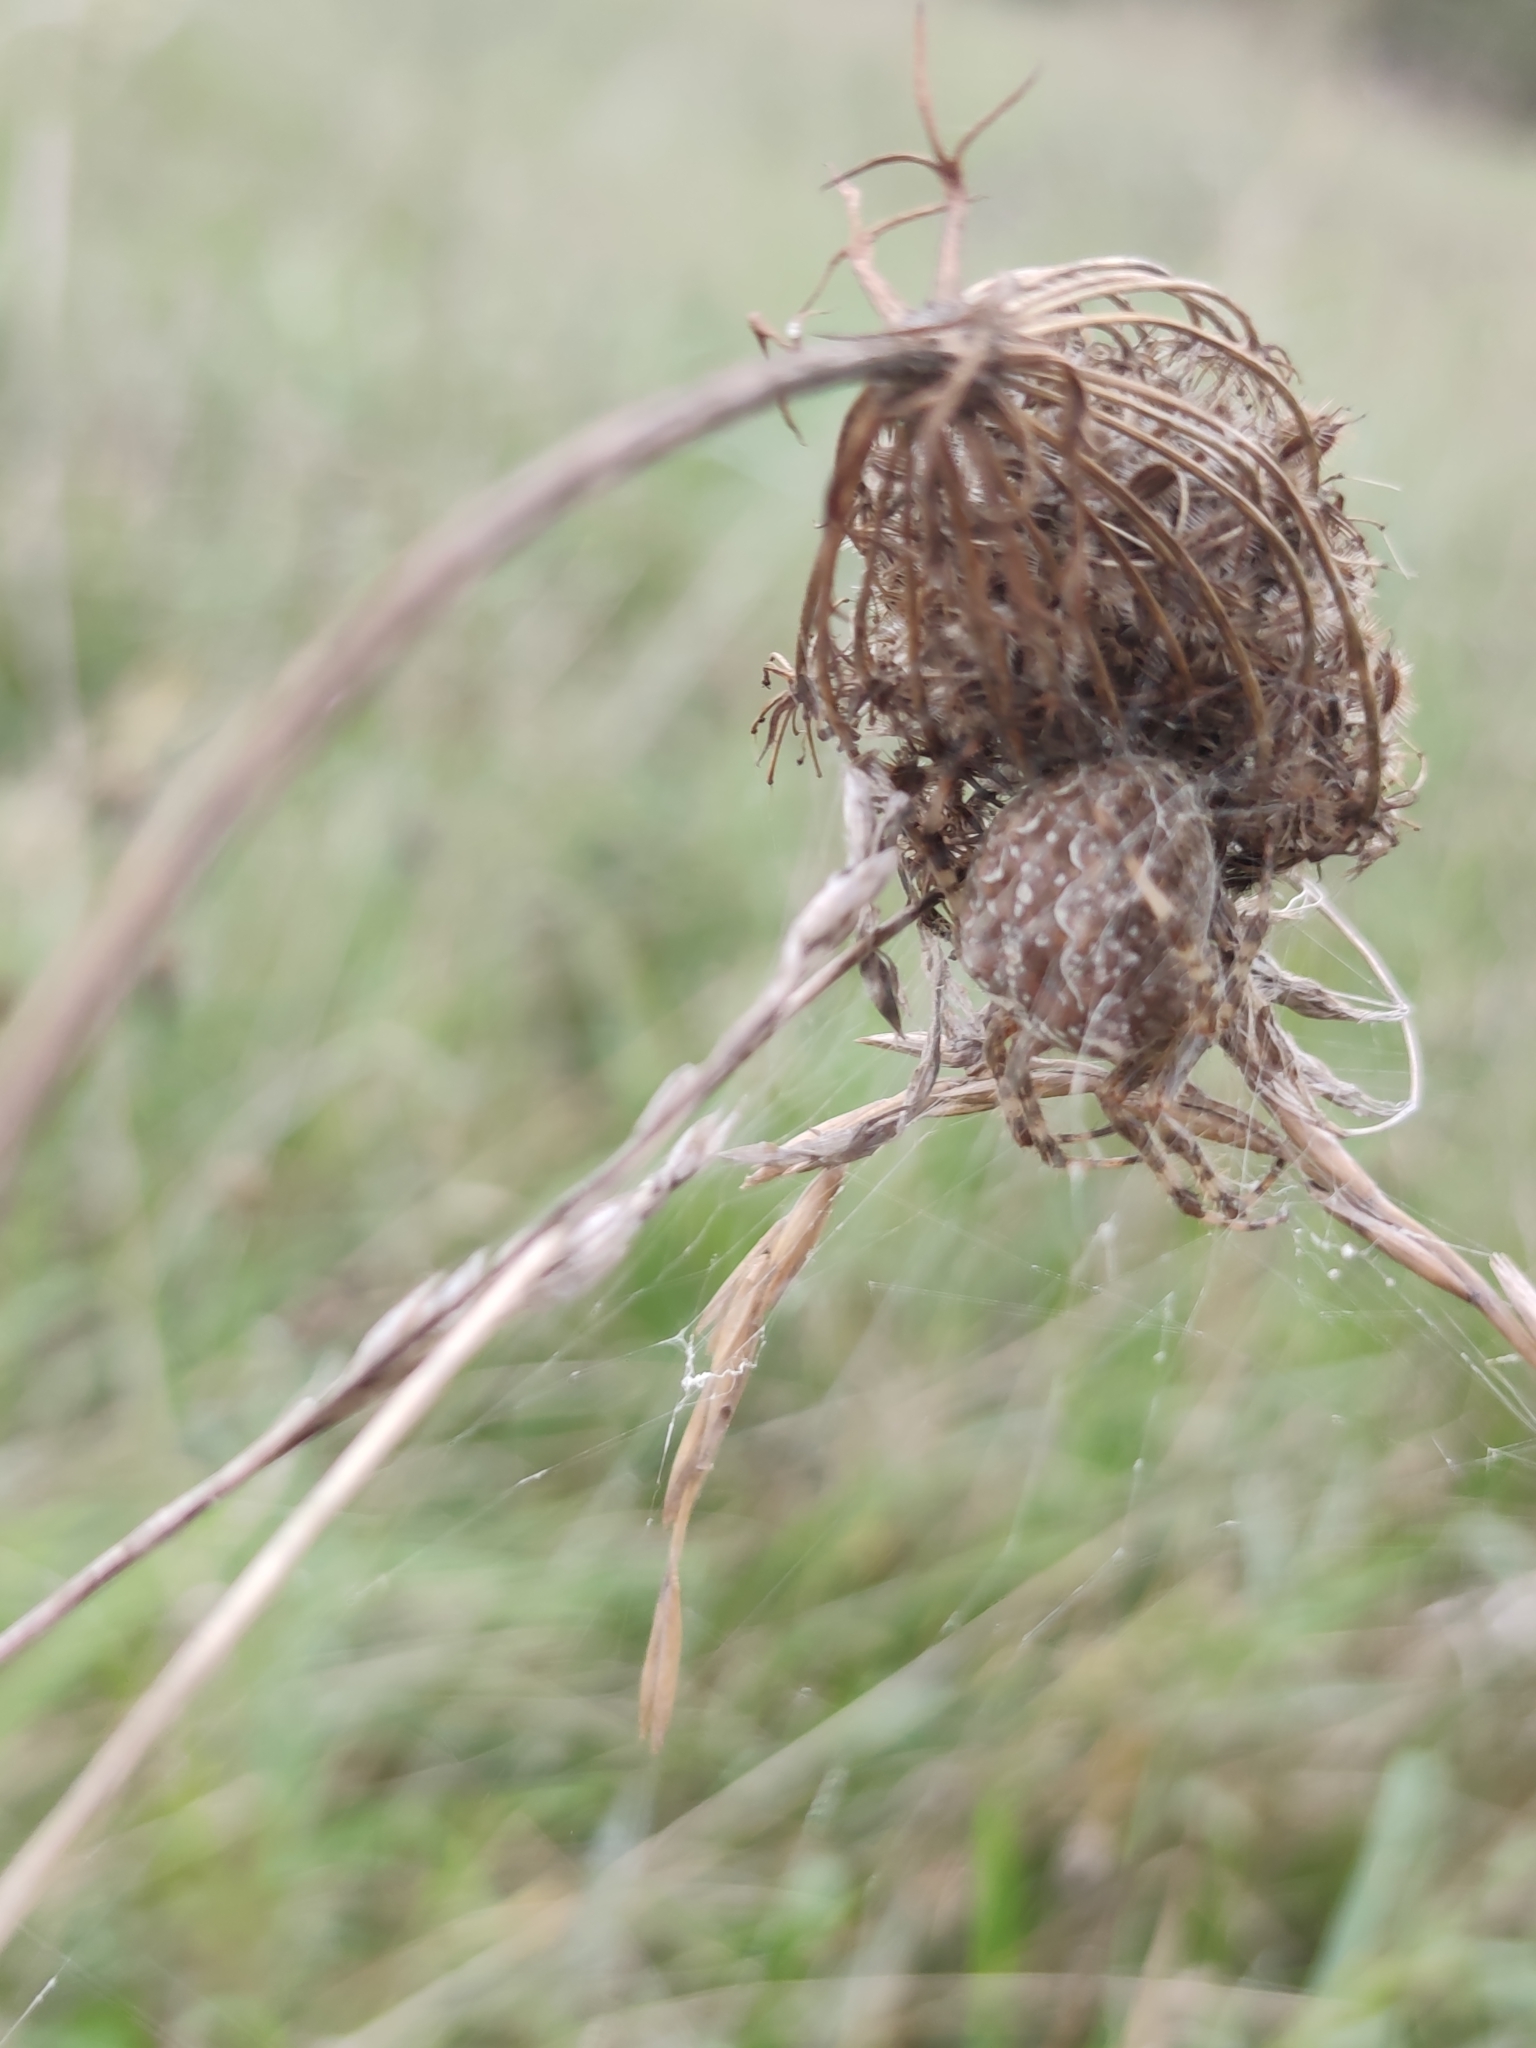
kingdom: Animalia
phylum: Arthropoda
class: Arachnida
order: Araneae
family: Araneidae
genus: Araneus
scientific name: Araneus diadematus
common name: Cross orbweaver
